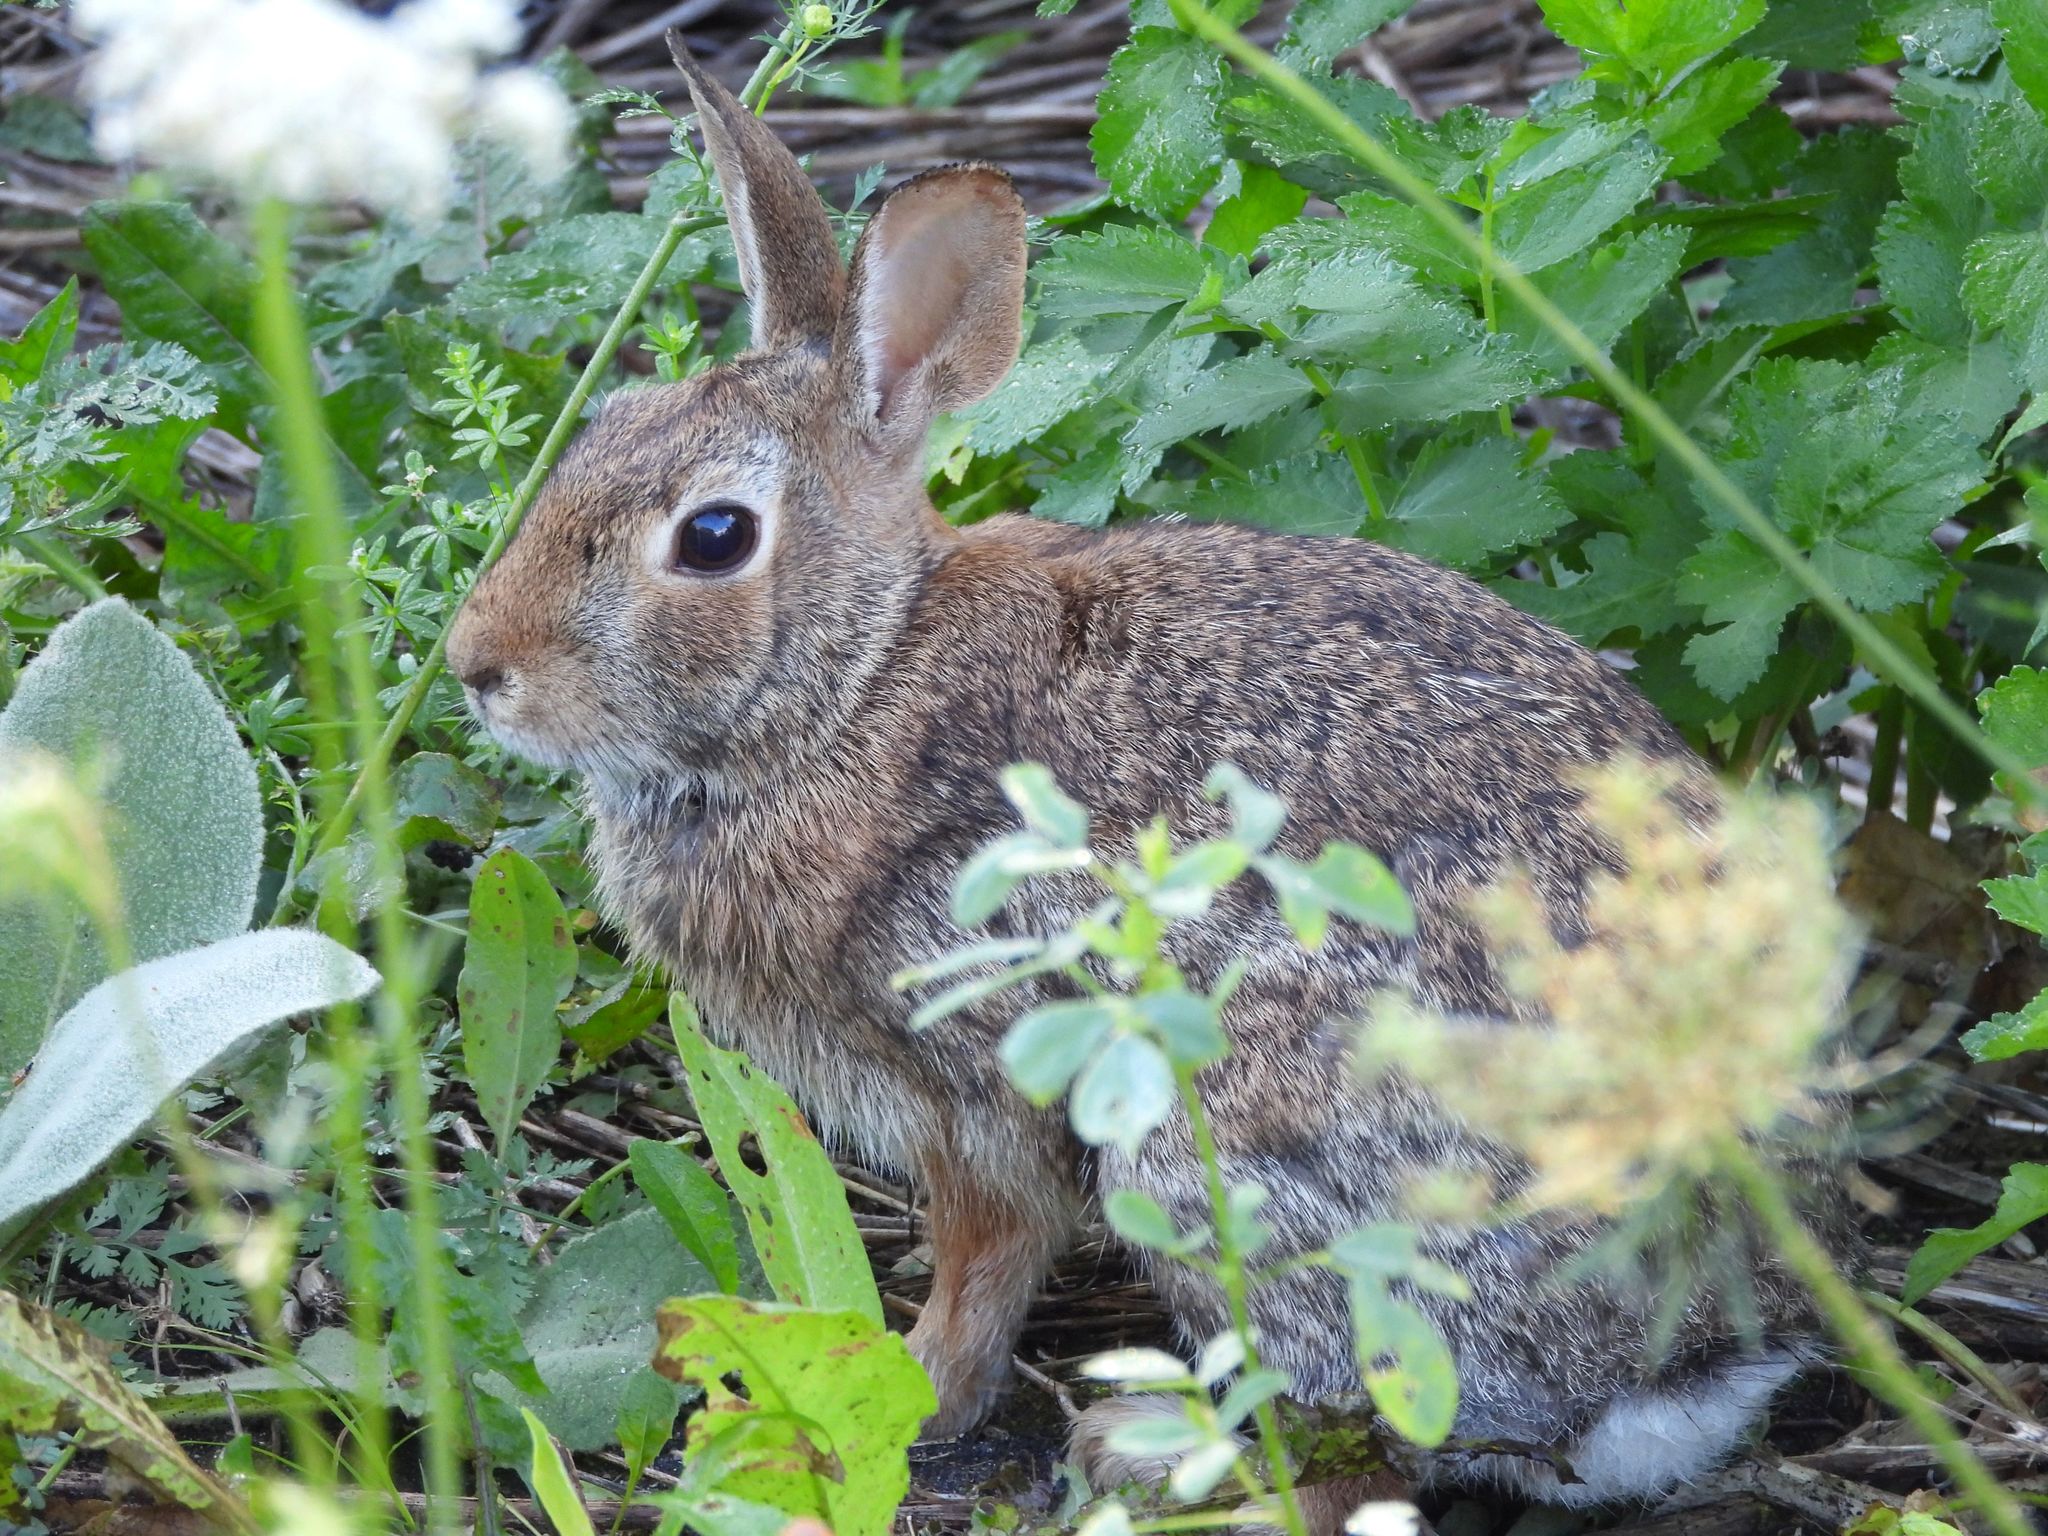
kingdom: Animalia
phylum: Chordata
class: Mammalia
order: Lagomorpha
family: Leporidae
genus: Sylvilagus
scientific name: Sylvilagus floridanus
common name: Eastern cottontail
